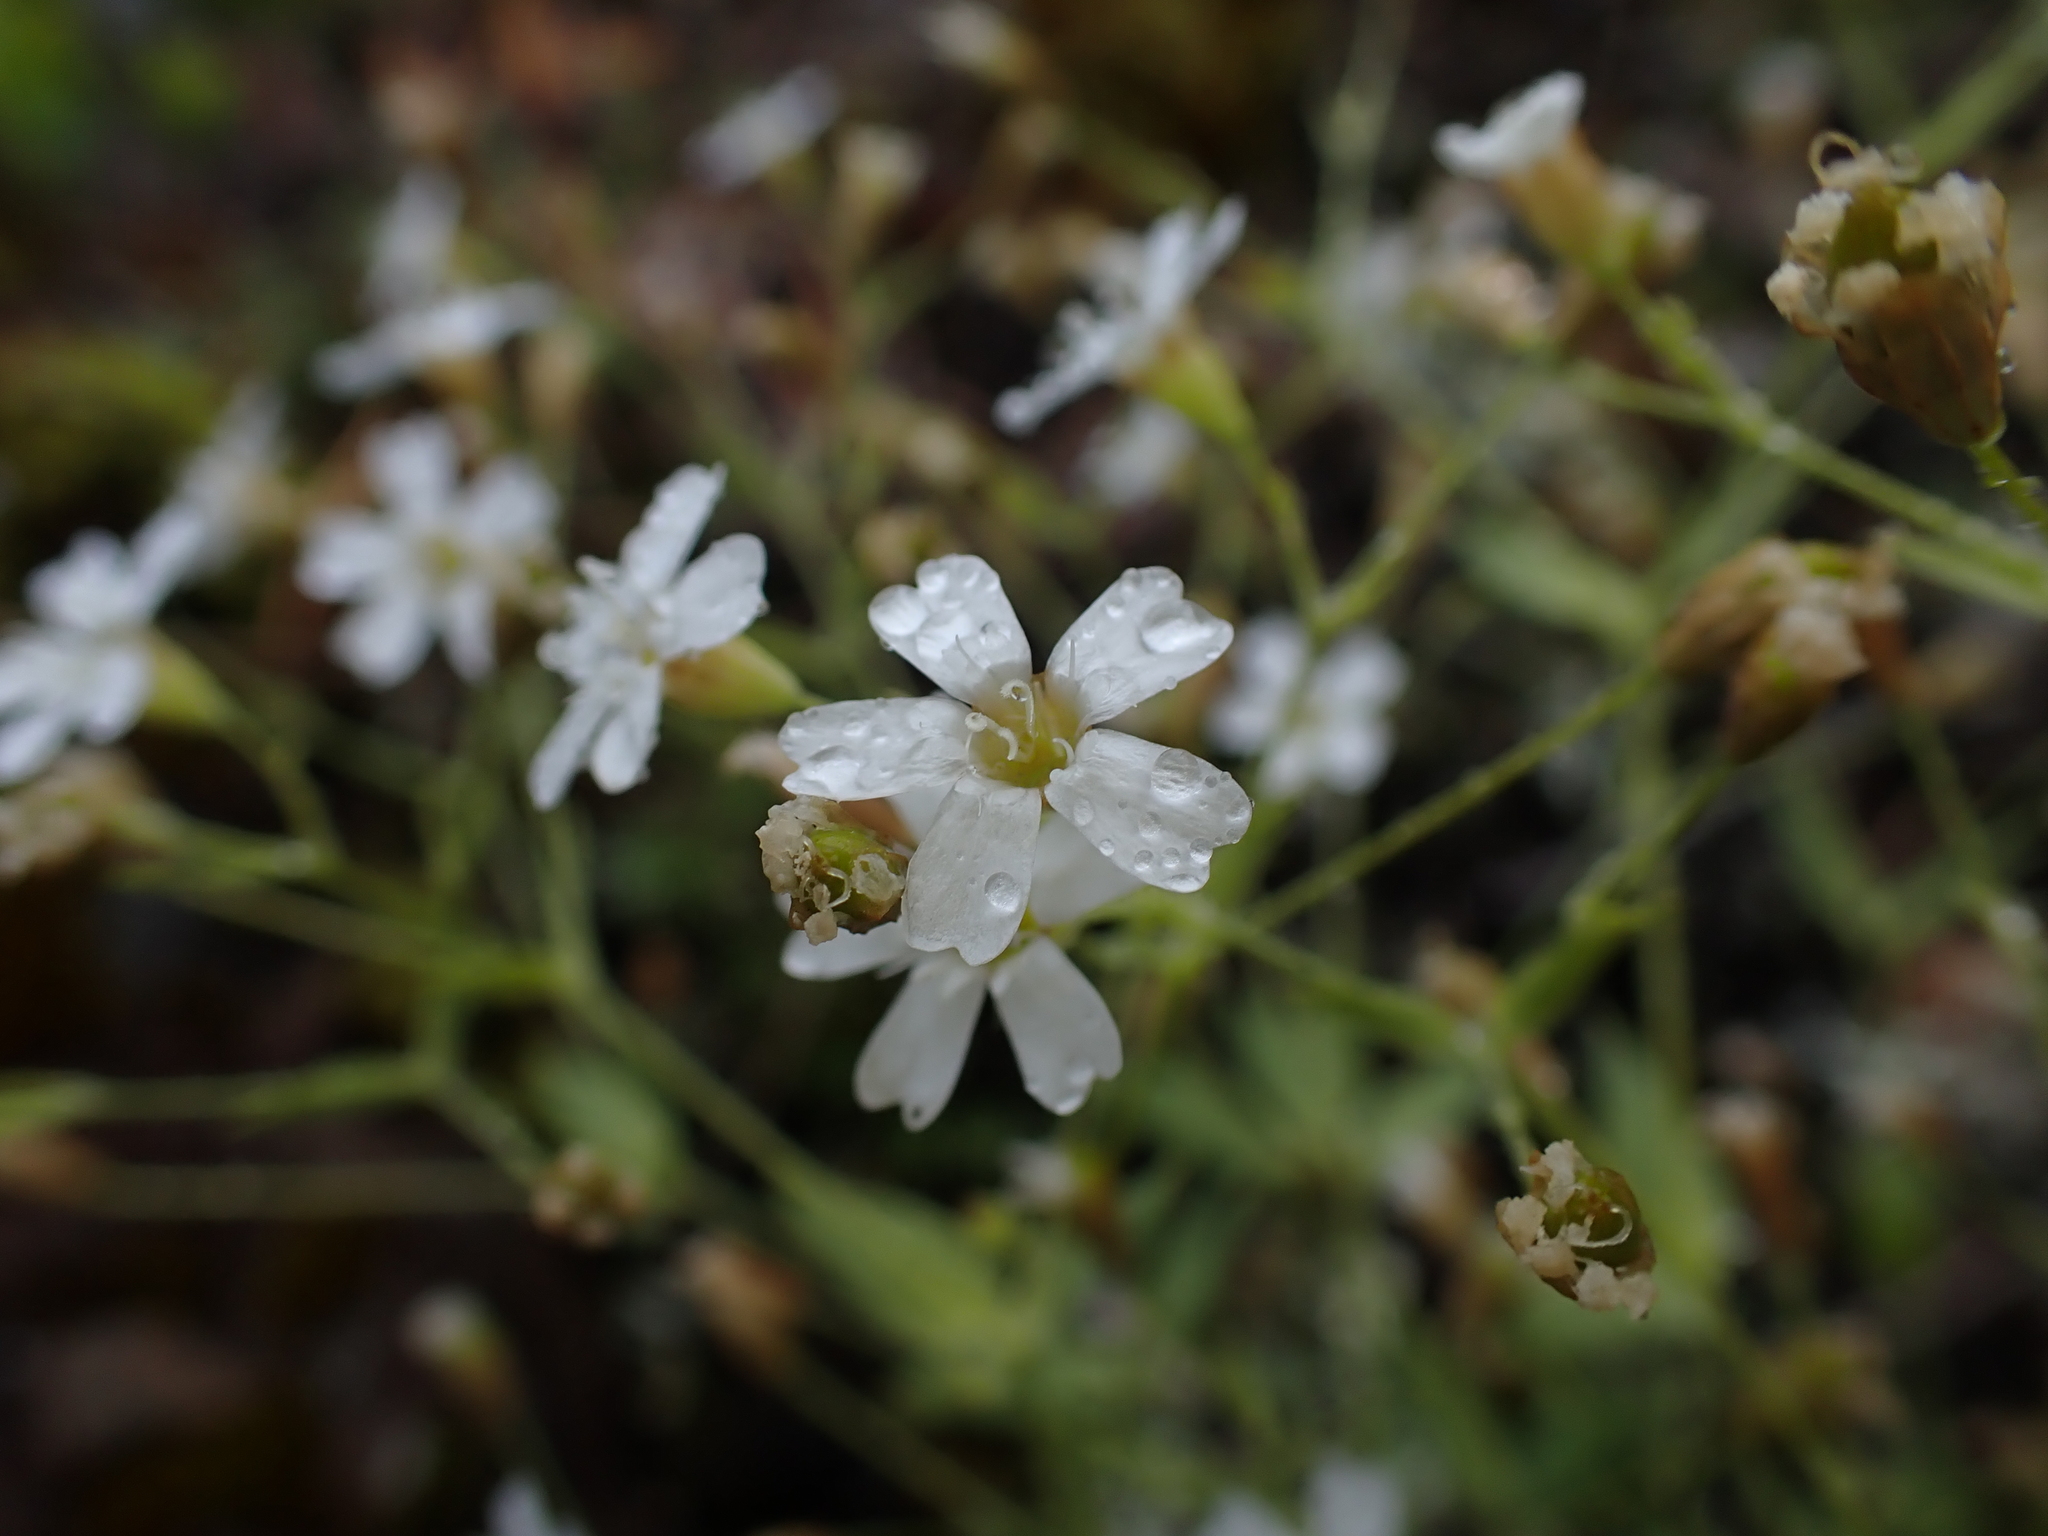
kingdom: Plantae
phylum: Tracheophyta
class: Magnoliopsida
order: Caryophyllales
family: Caryophyllaceae
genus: Atocion
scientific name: Atocion rupestre
